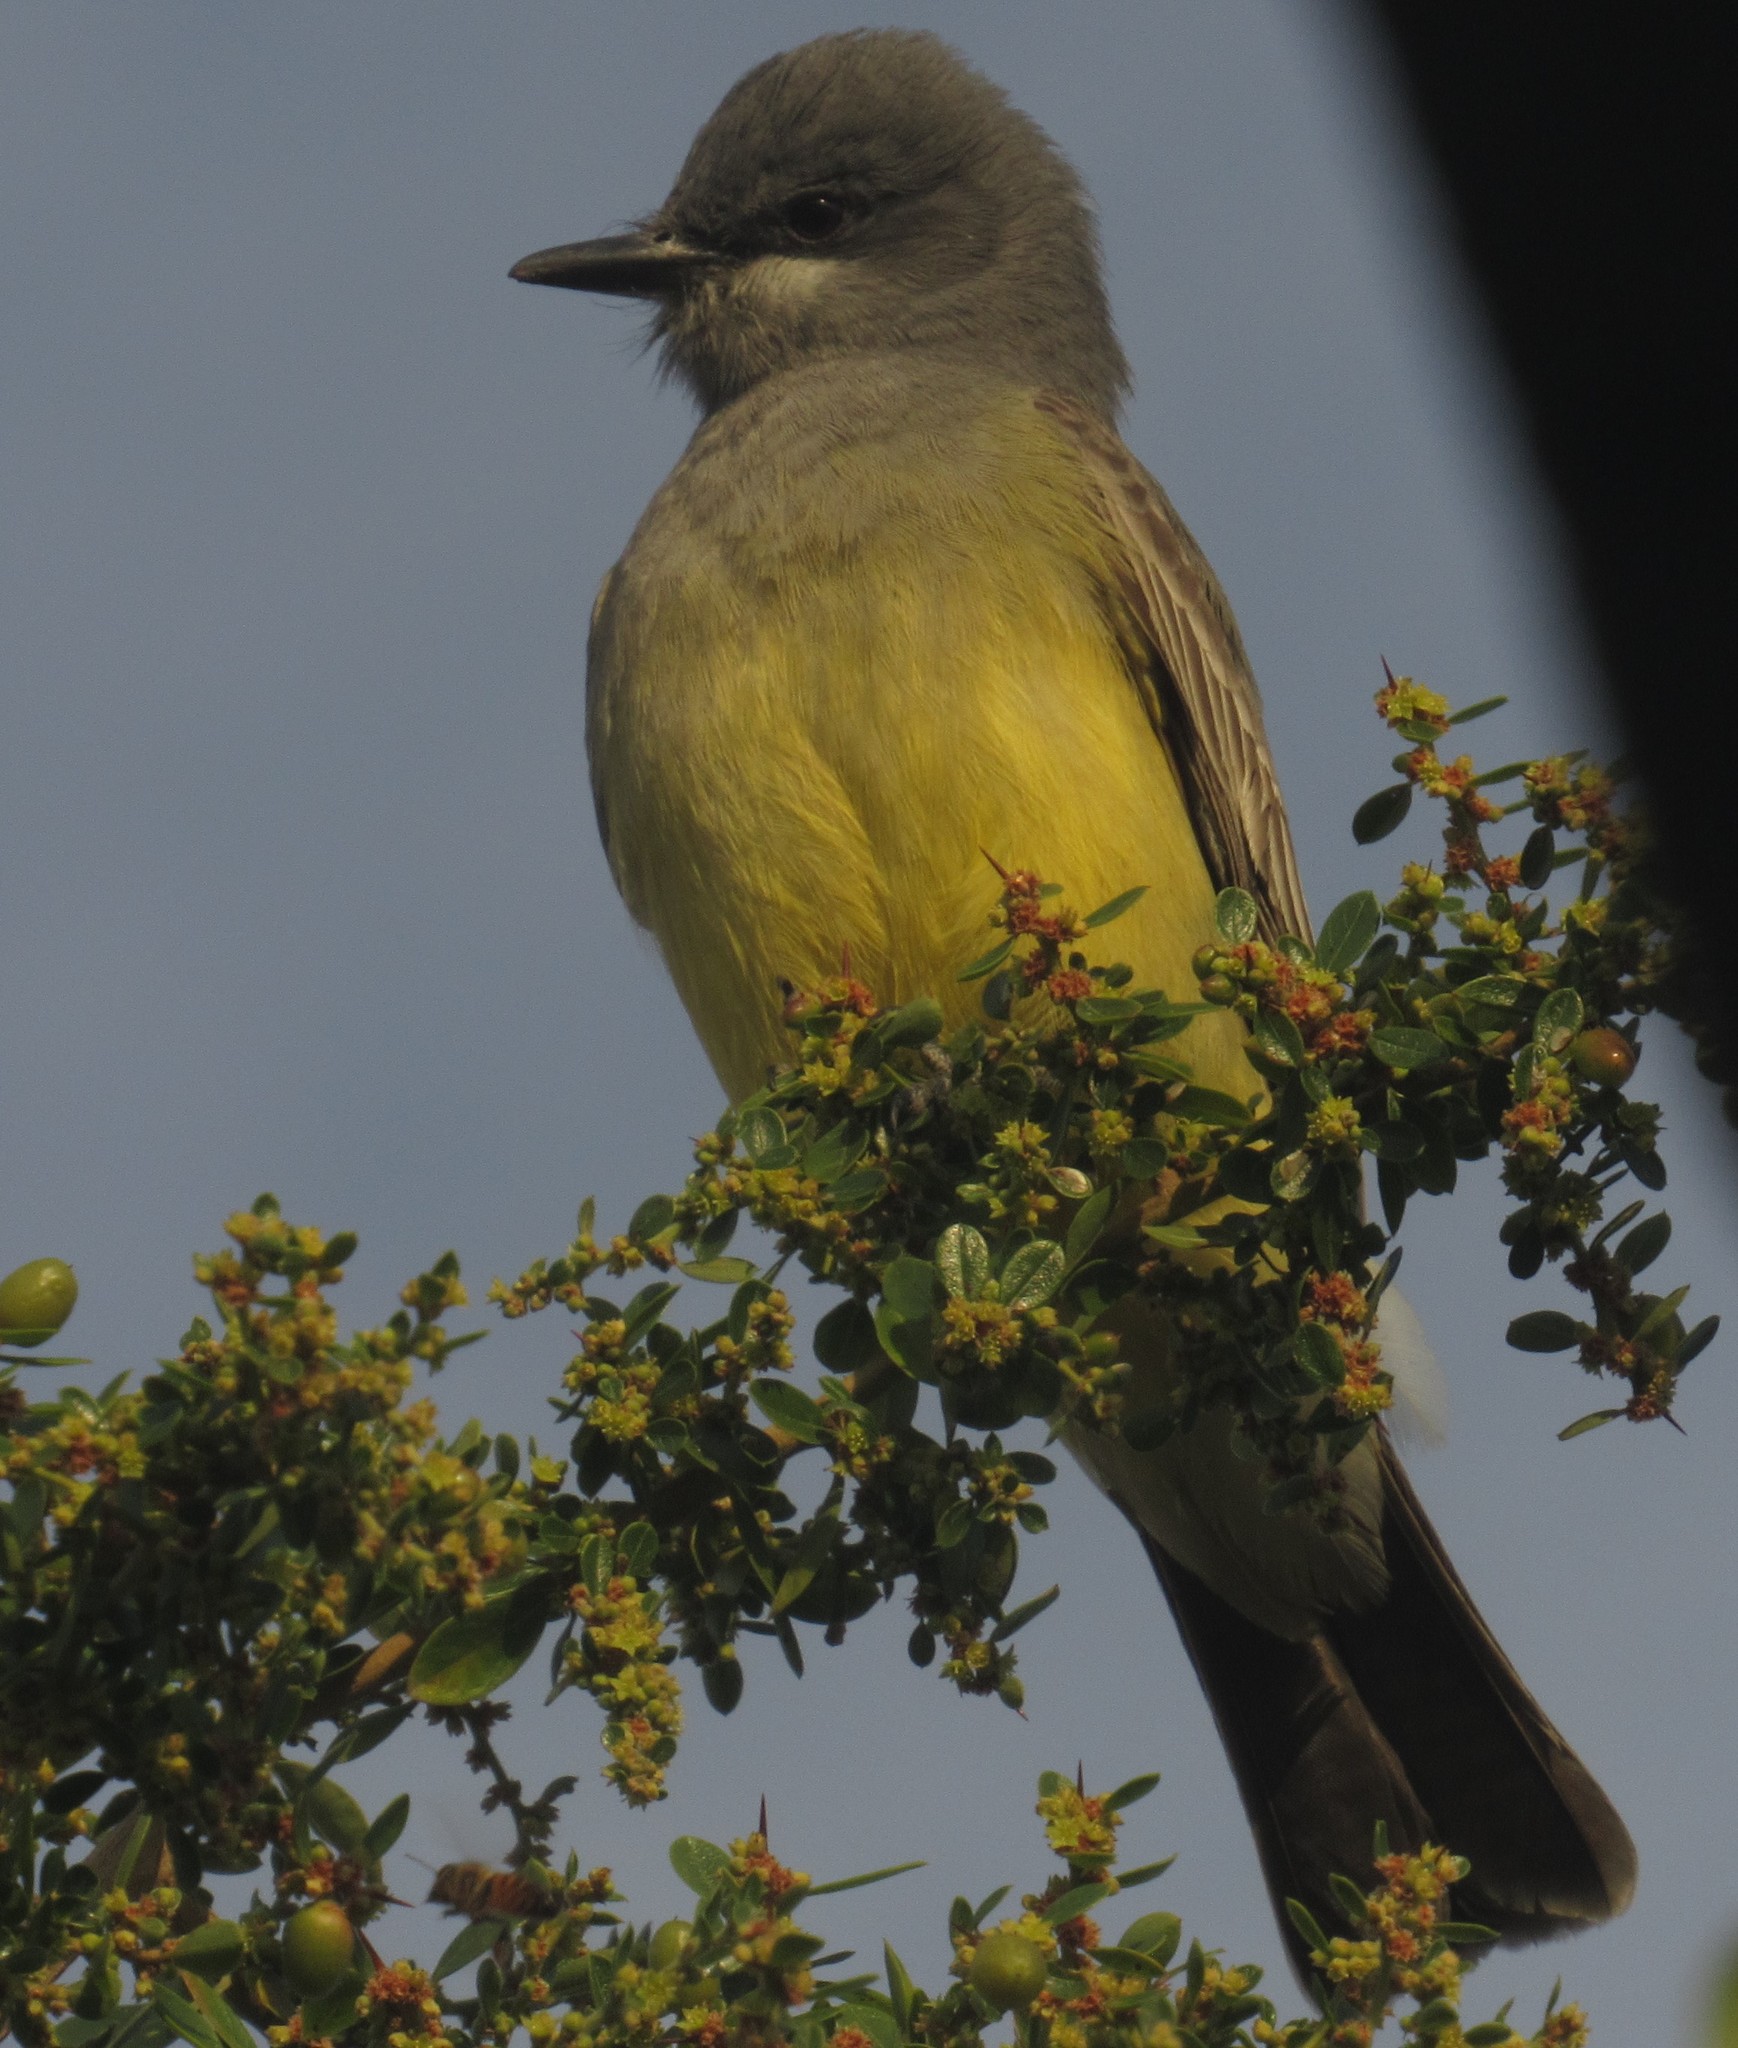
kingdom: Animalia
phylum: Chordata
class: Aves
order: Passeriformes
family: Tyrannidae
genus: Tyrannus
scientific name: Tyrannus vociferans
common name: Cassin's kingbird
